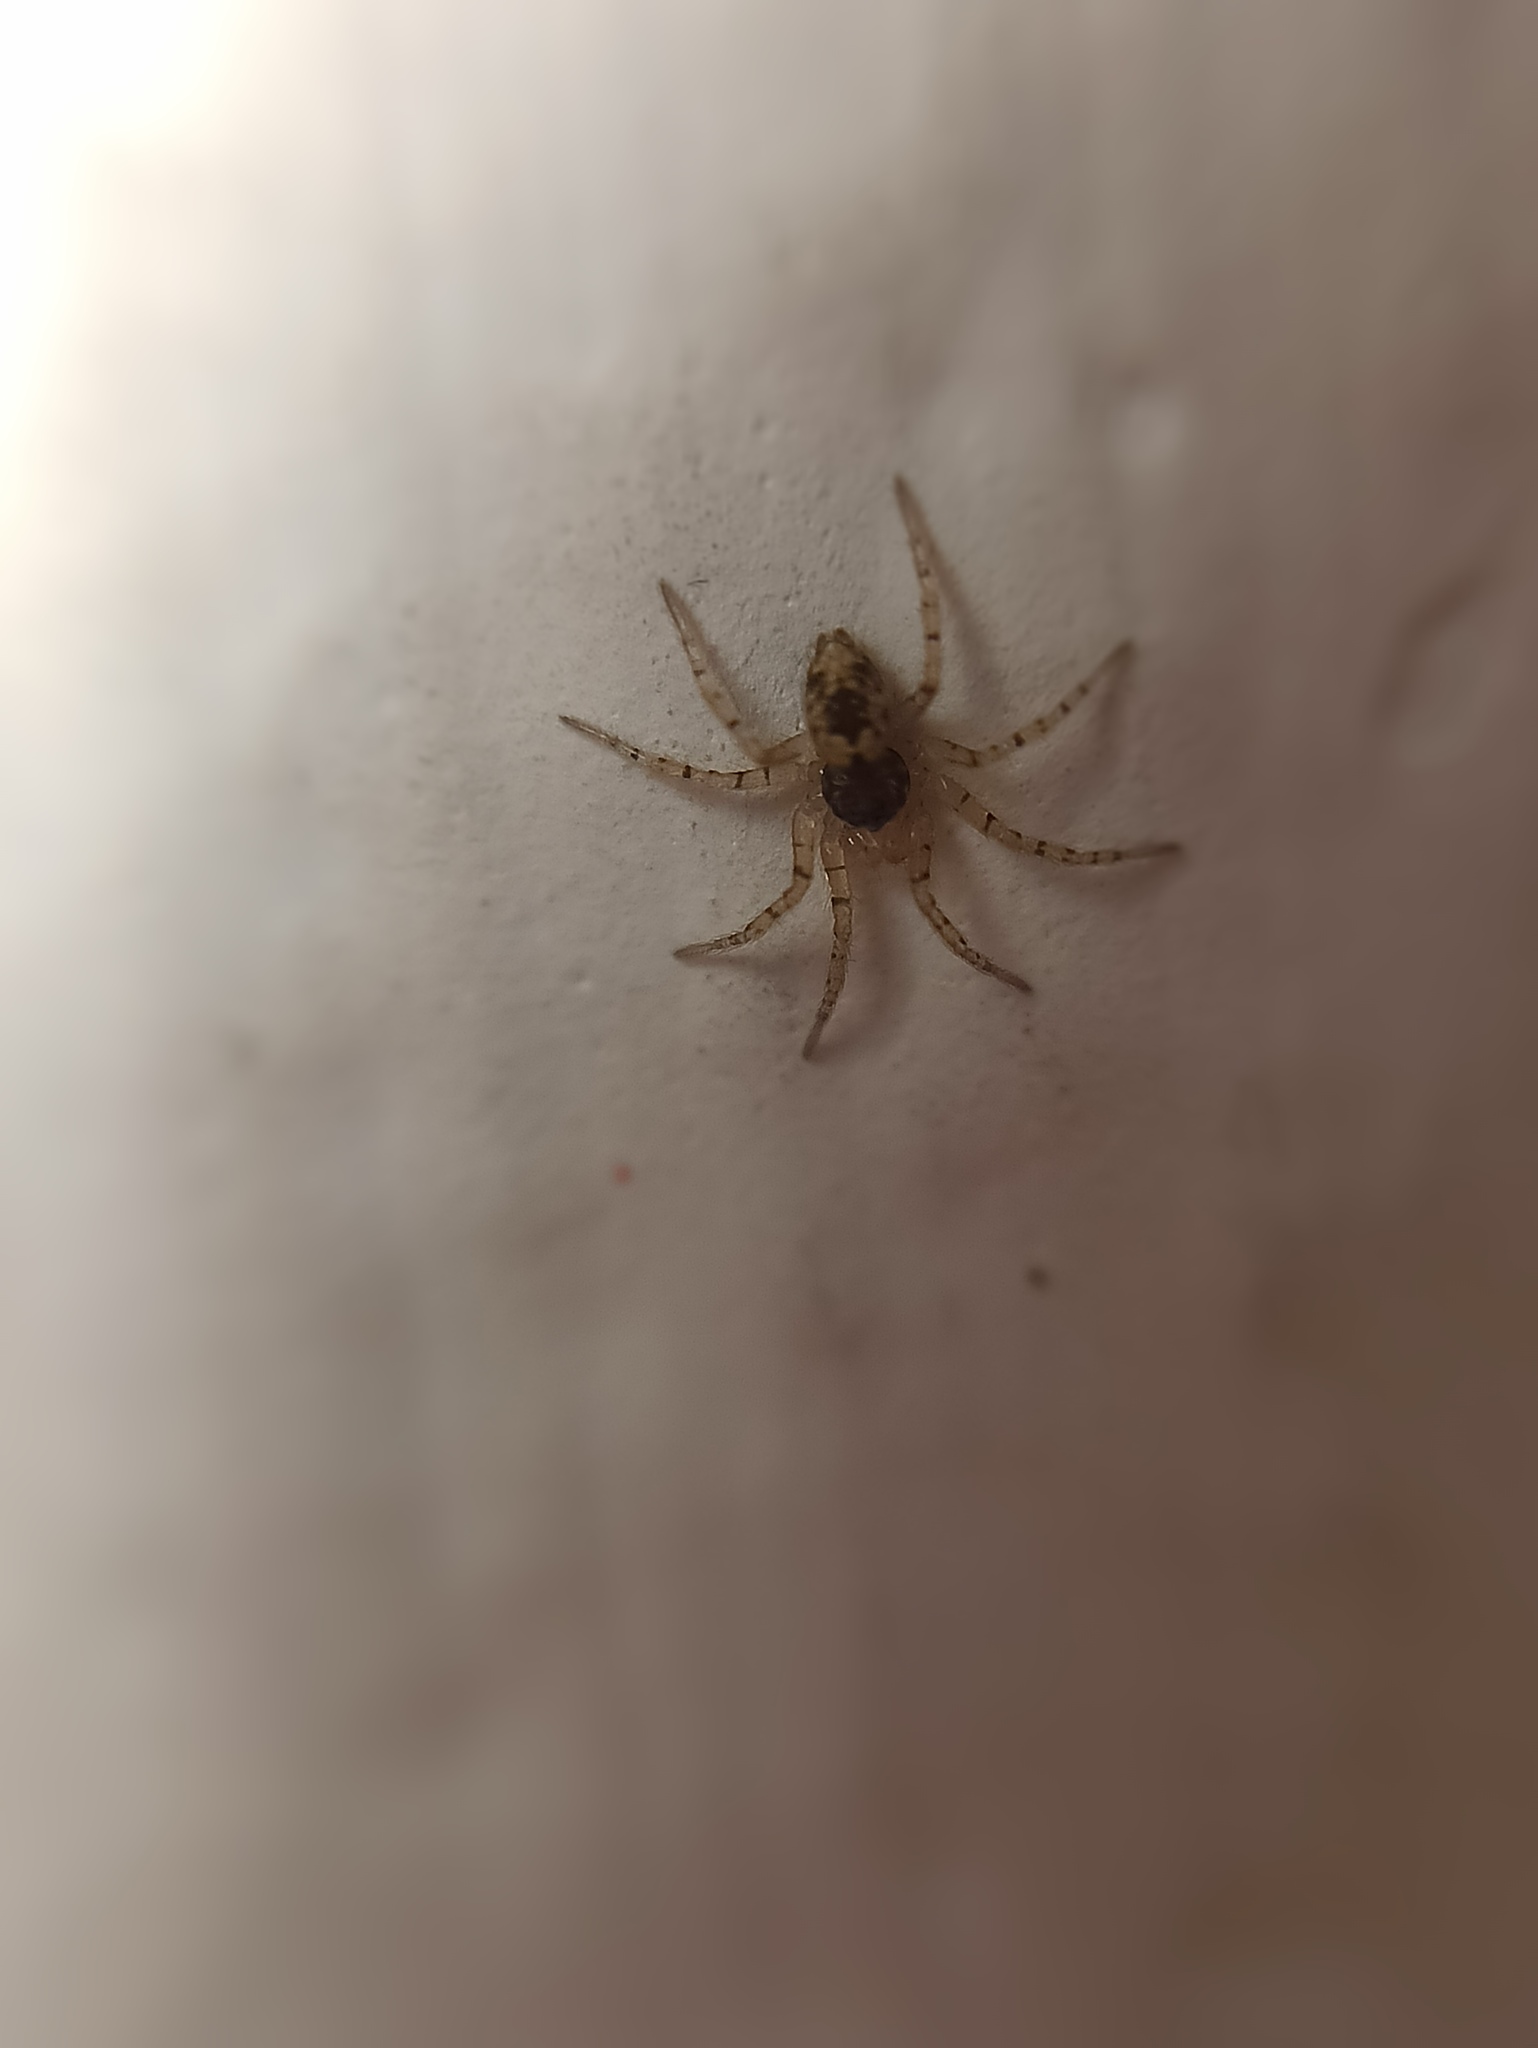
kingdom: Animalia
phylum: Arthropoda
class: Arachnida
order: Araneae
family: Oecobiidae
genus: Oecobius
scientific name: Oecobius maculatus
